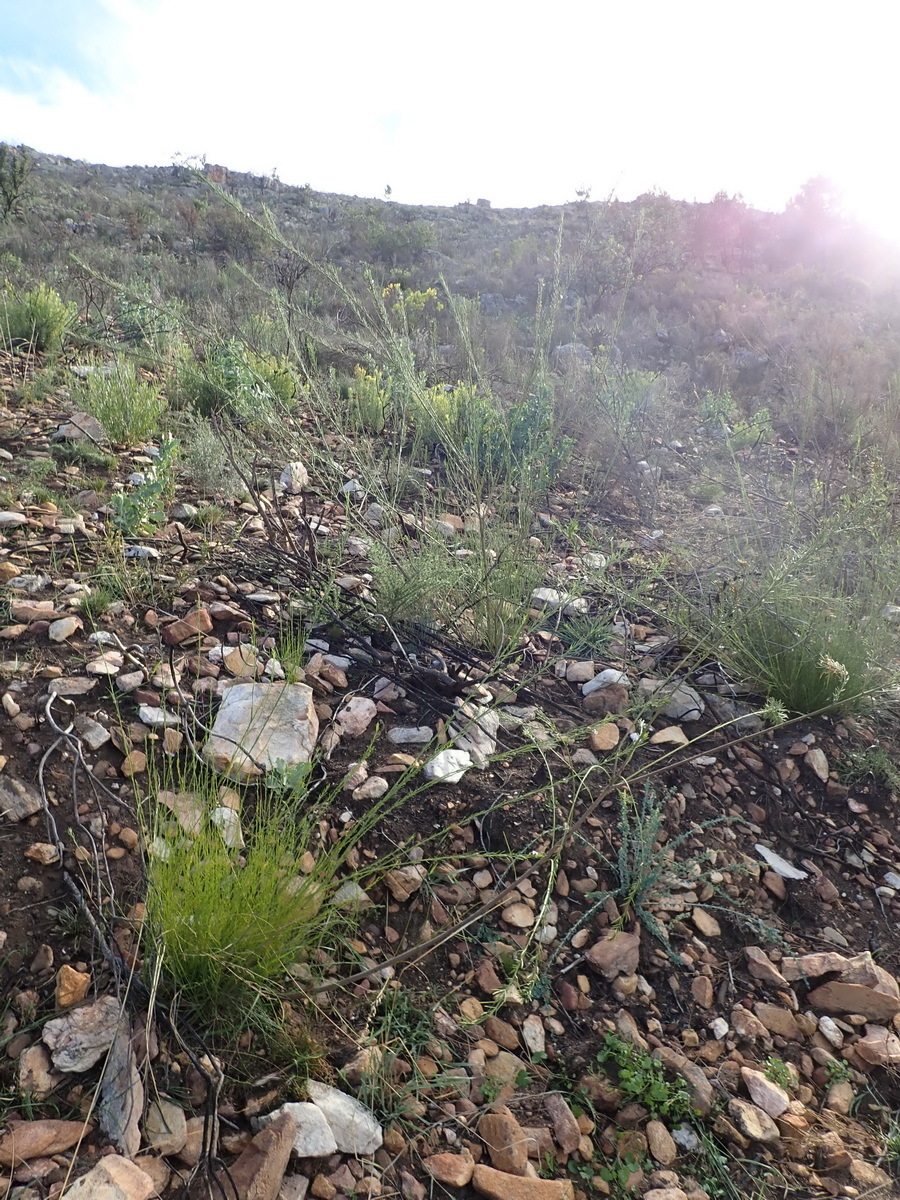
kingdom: Plantae
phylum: Tracheophyta
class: Magnoliopsida
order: Fabales
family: Fabaceae
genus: Psoralea
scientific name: Psoralea diturnerae
